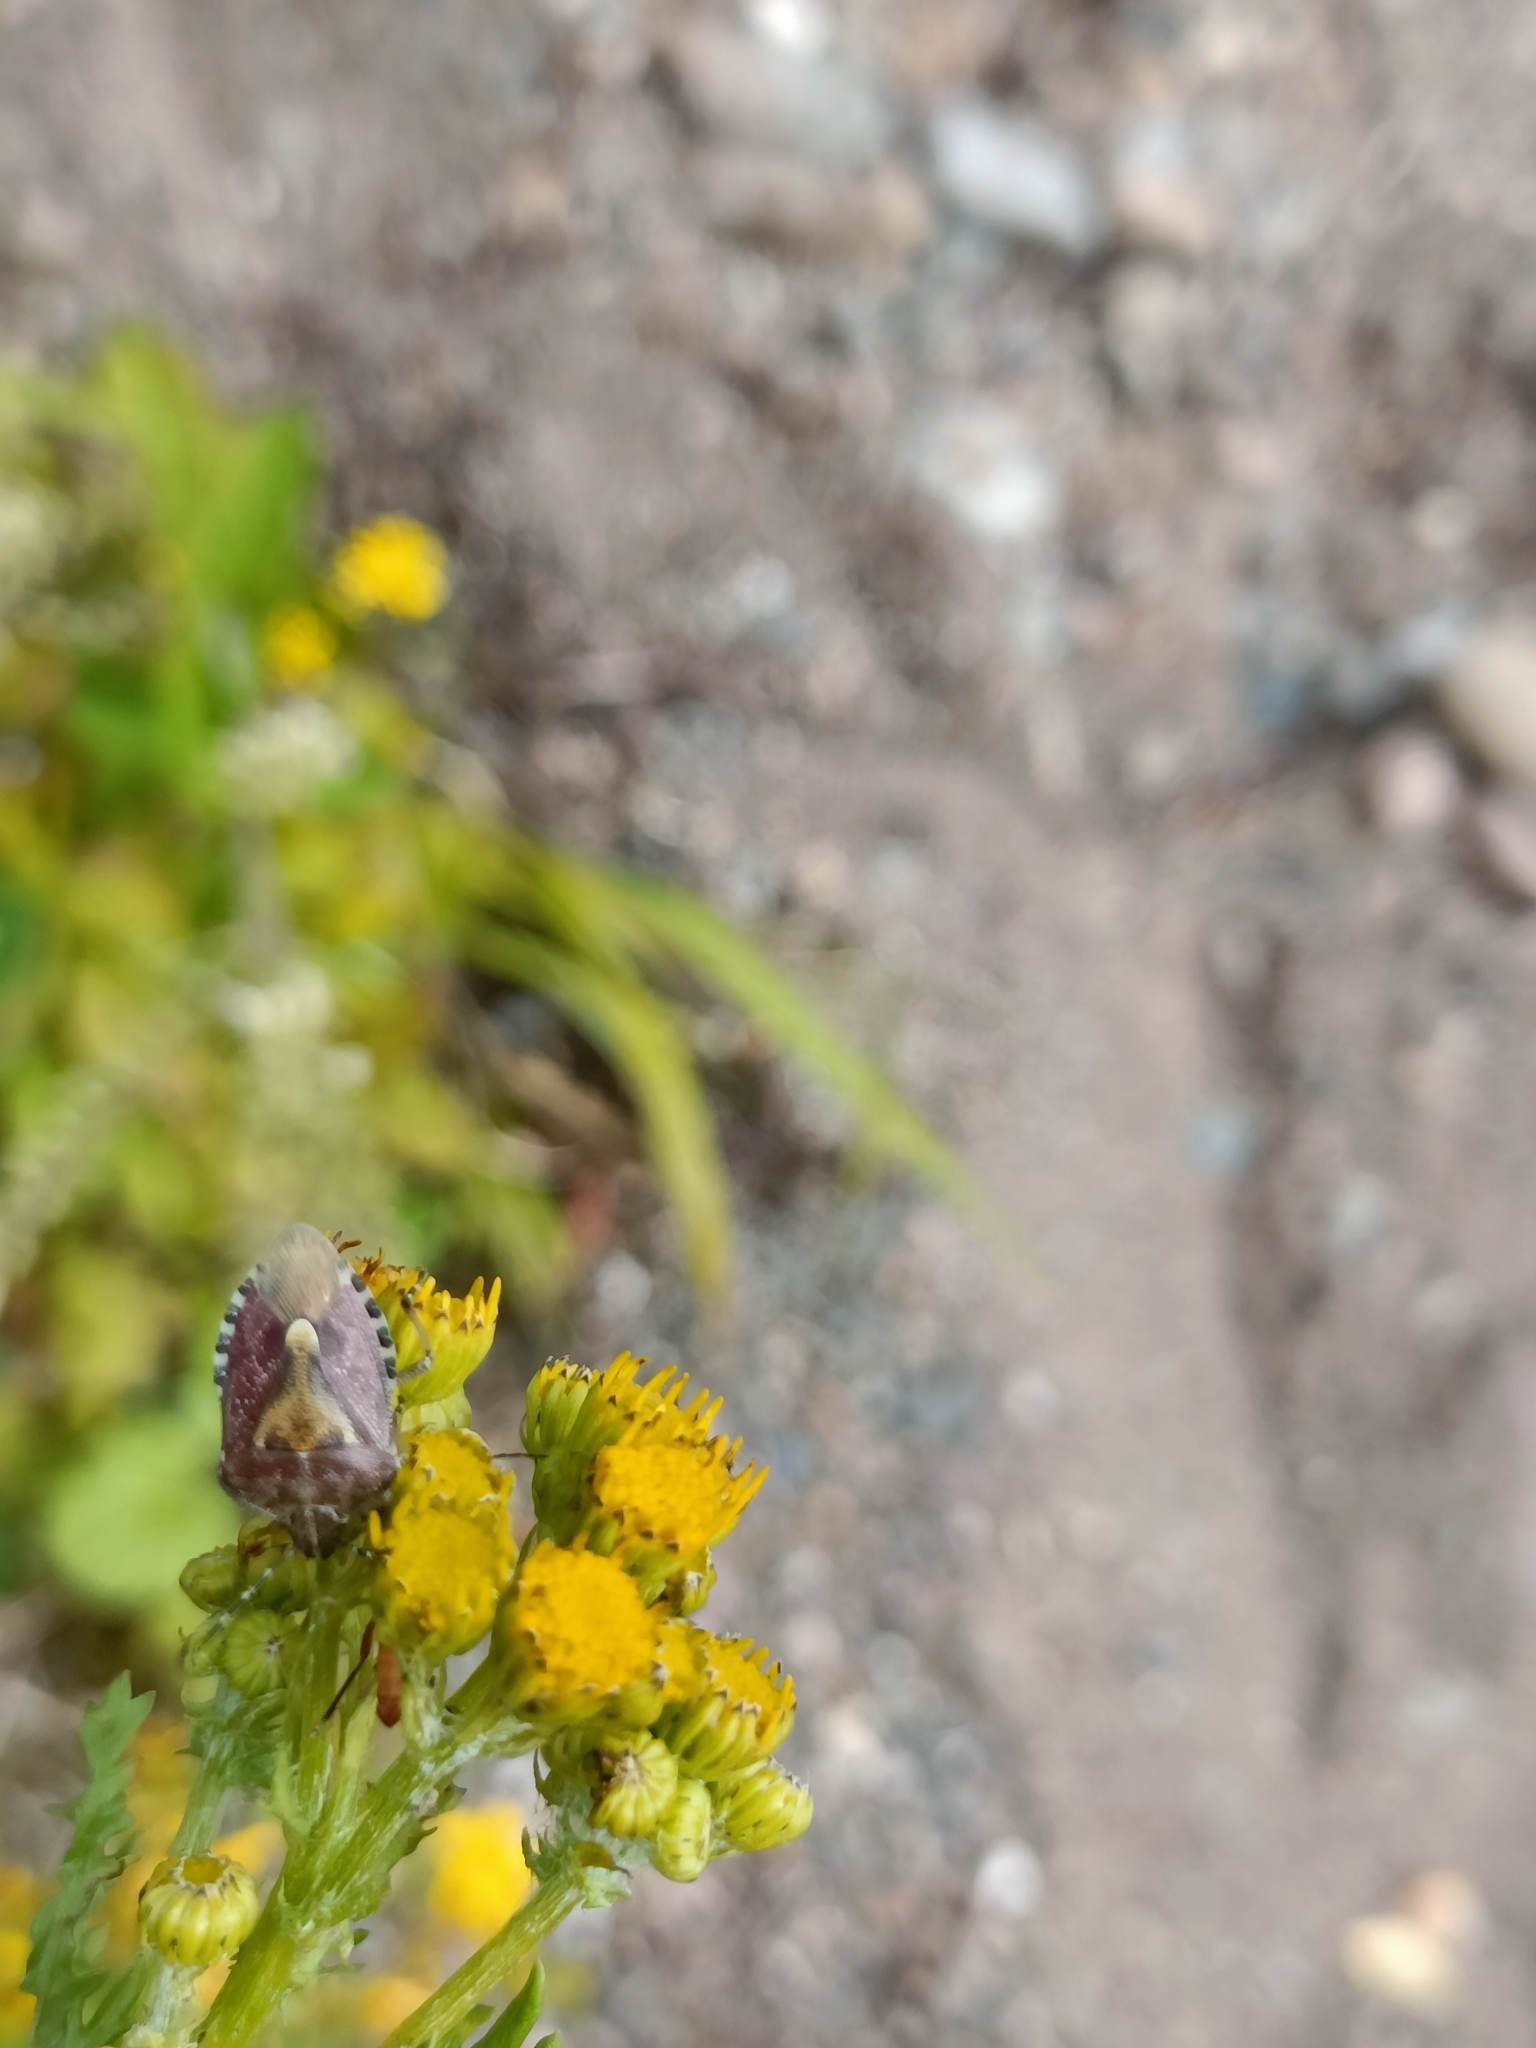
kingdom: Animalia
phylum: Arthropoda
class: Insecta
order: Hemiptera
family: Pentatomidae
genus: Dolycoris
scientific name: Dolycoris baccarum
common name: Sloe bug
